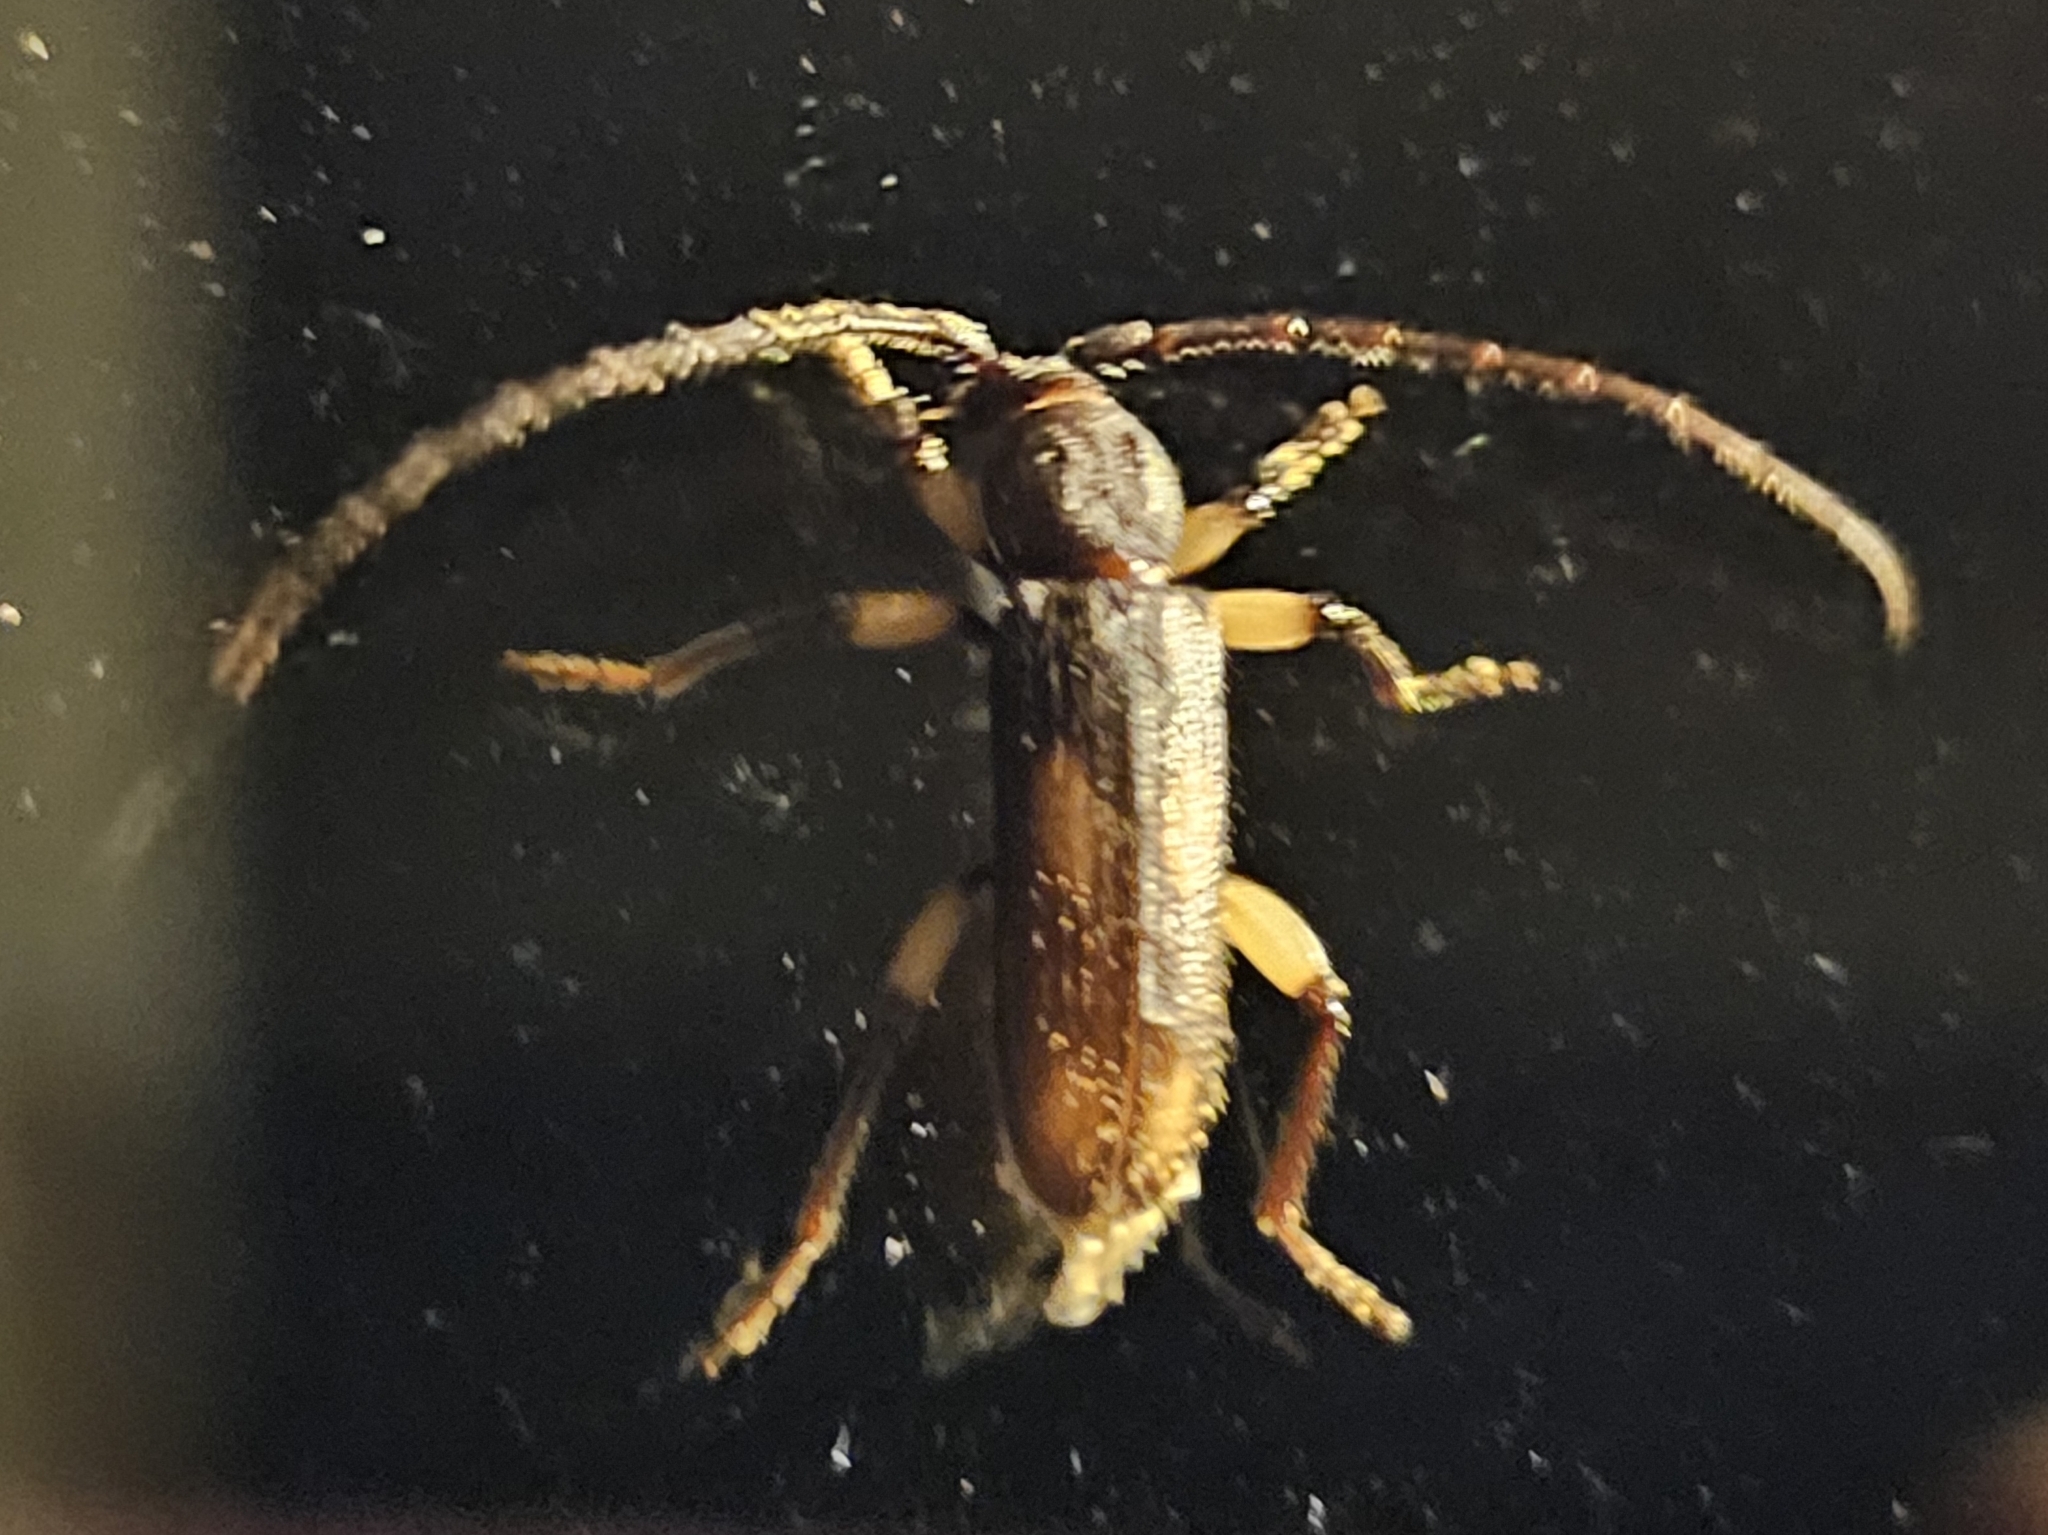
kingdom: Animalia
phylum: Arthropoda
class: Insecta
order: Coleoptera
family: Cerambycidae
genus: Tylonotus
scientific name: Tylonotus bimaculatus
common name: Ash and privet borer
